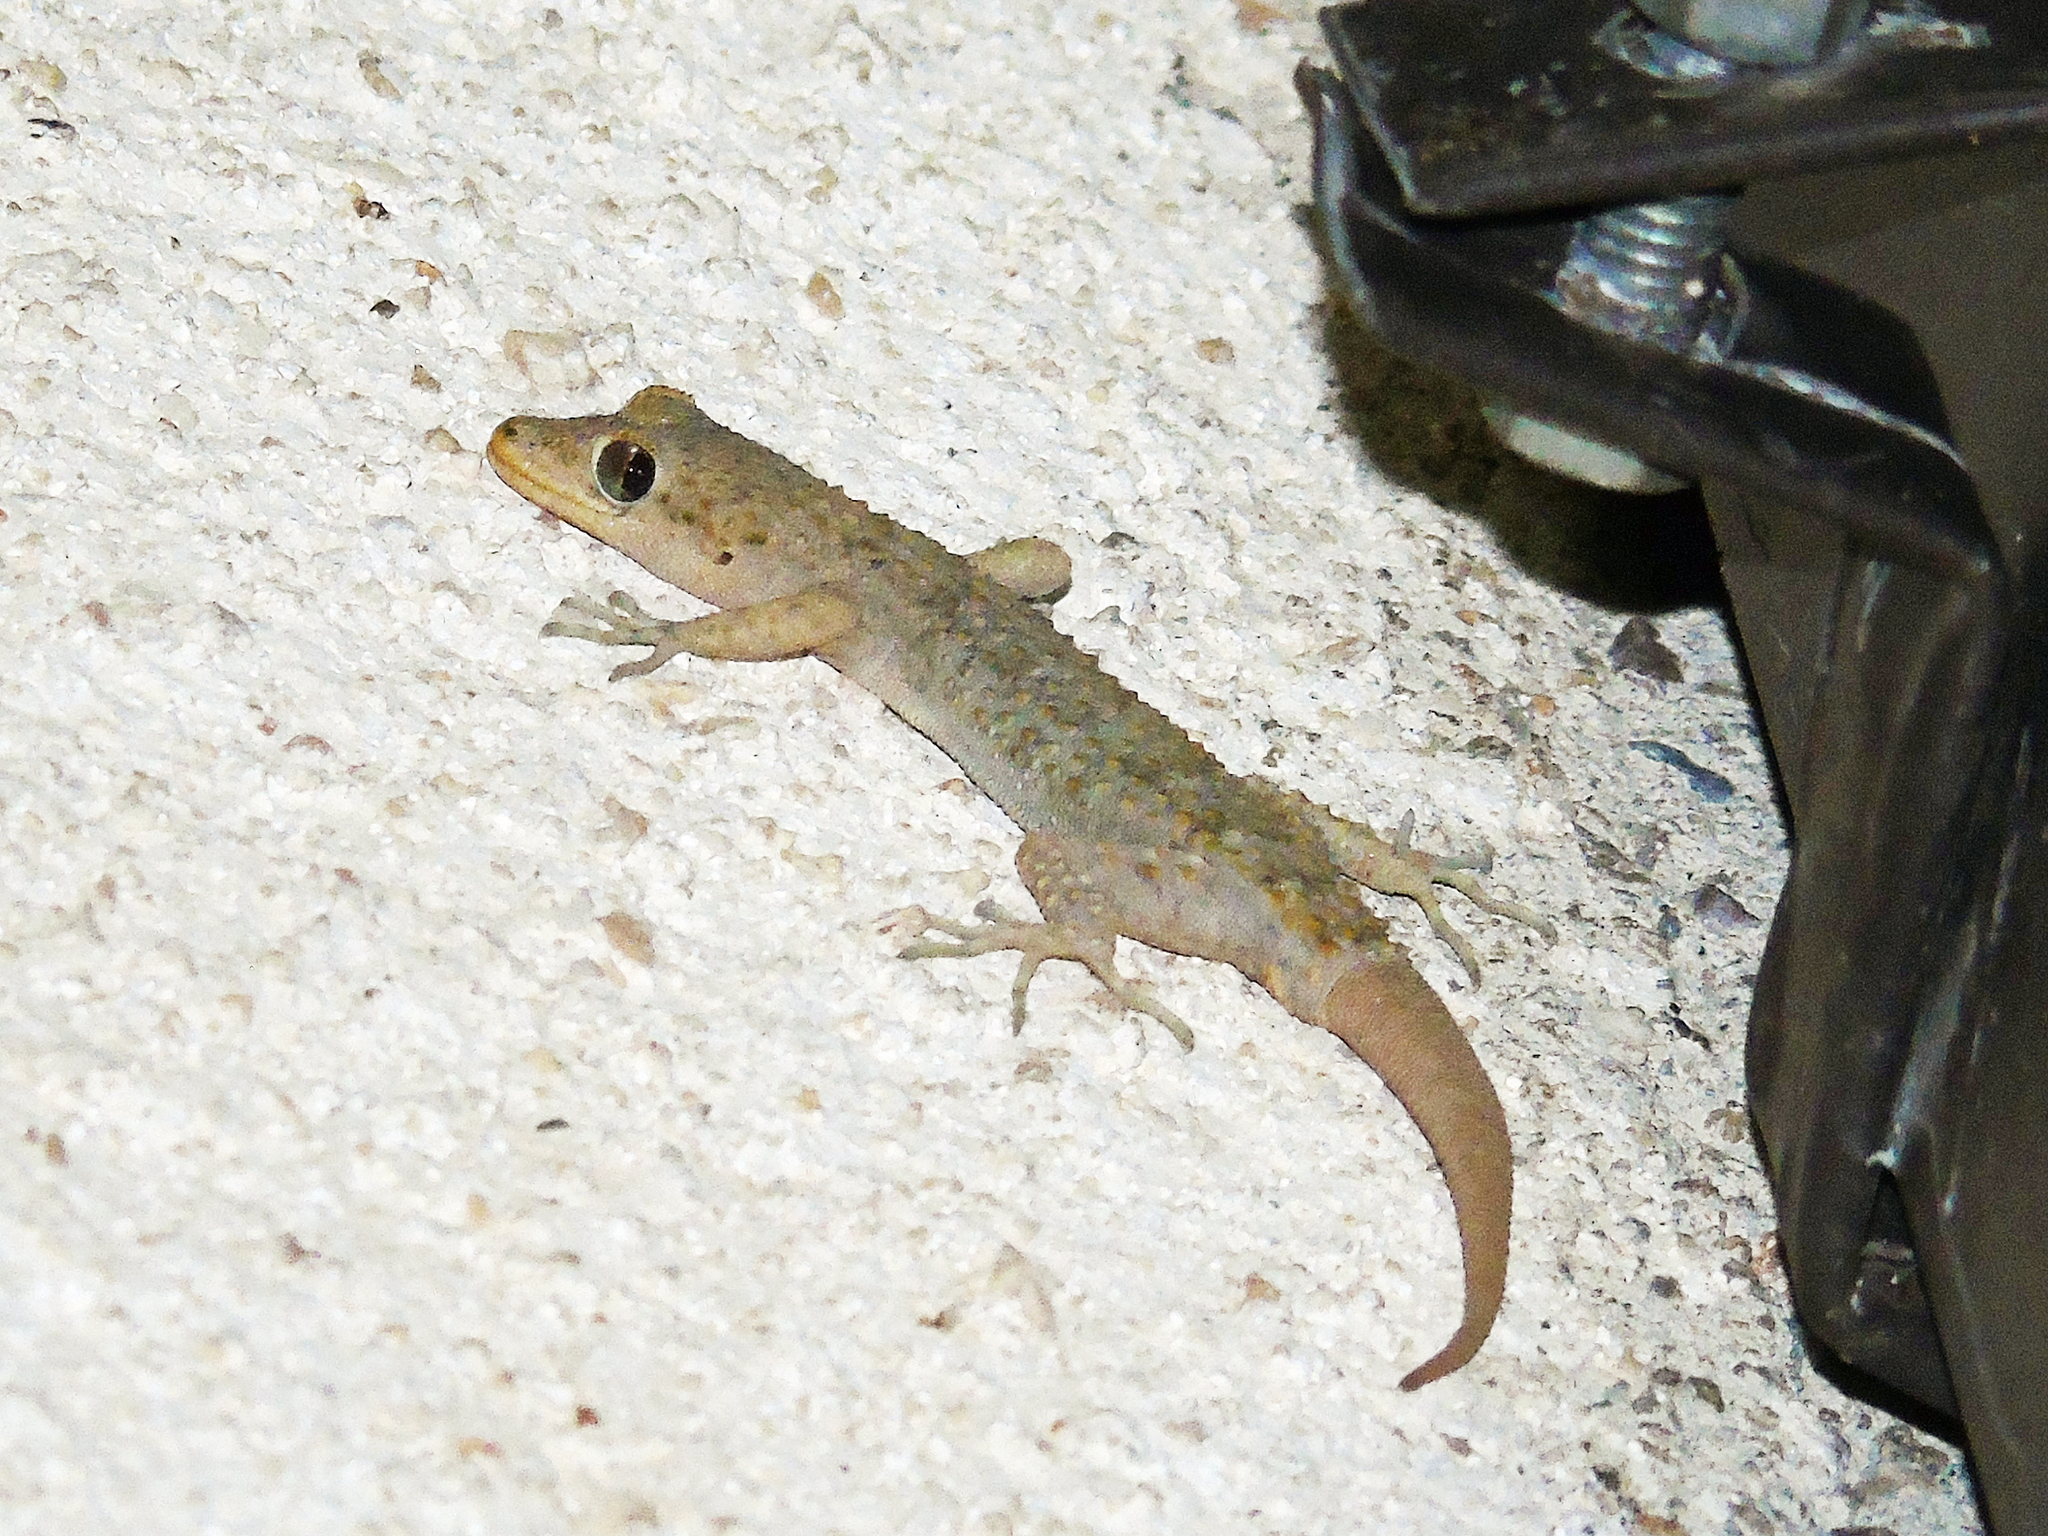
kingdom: Animalia
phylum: Chordata
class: Squamata
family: Gekkonidae
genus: Mediodactylus
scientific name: Mediodactylus kotschyi
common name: Kotschy's gecko
